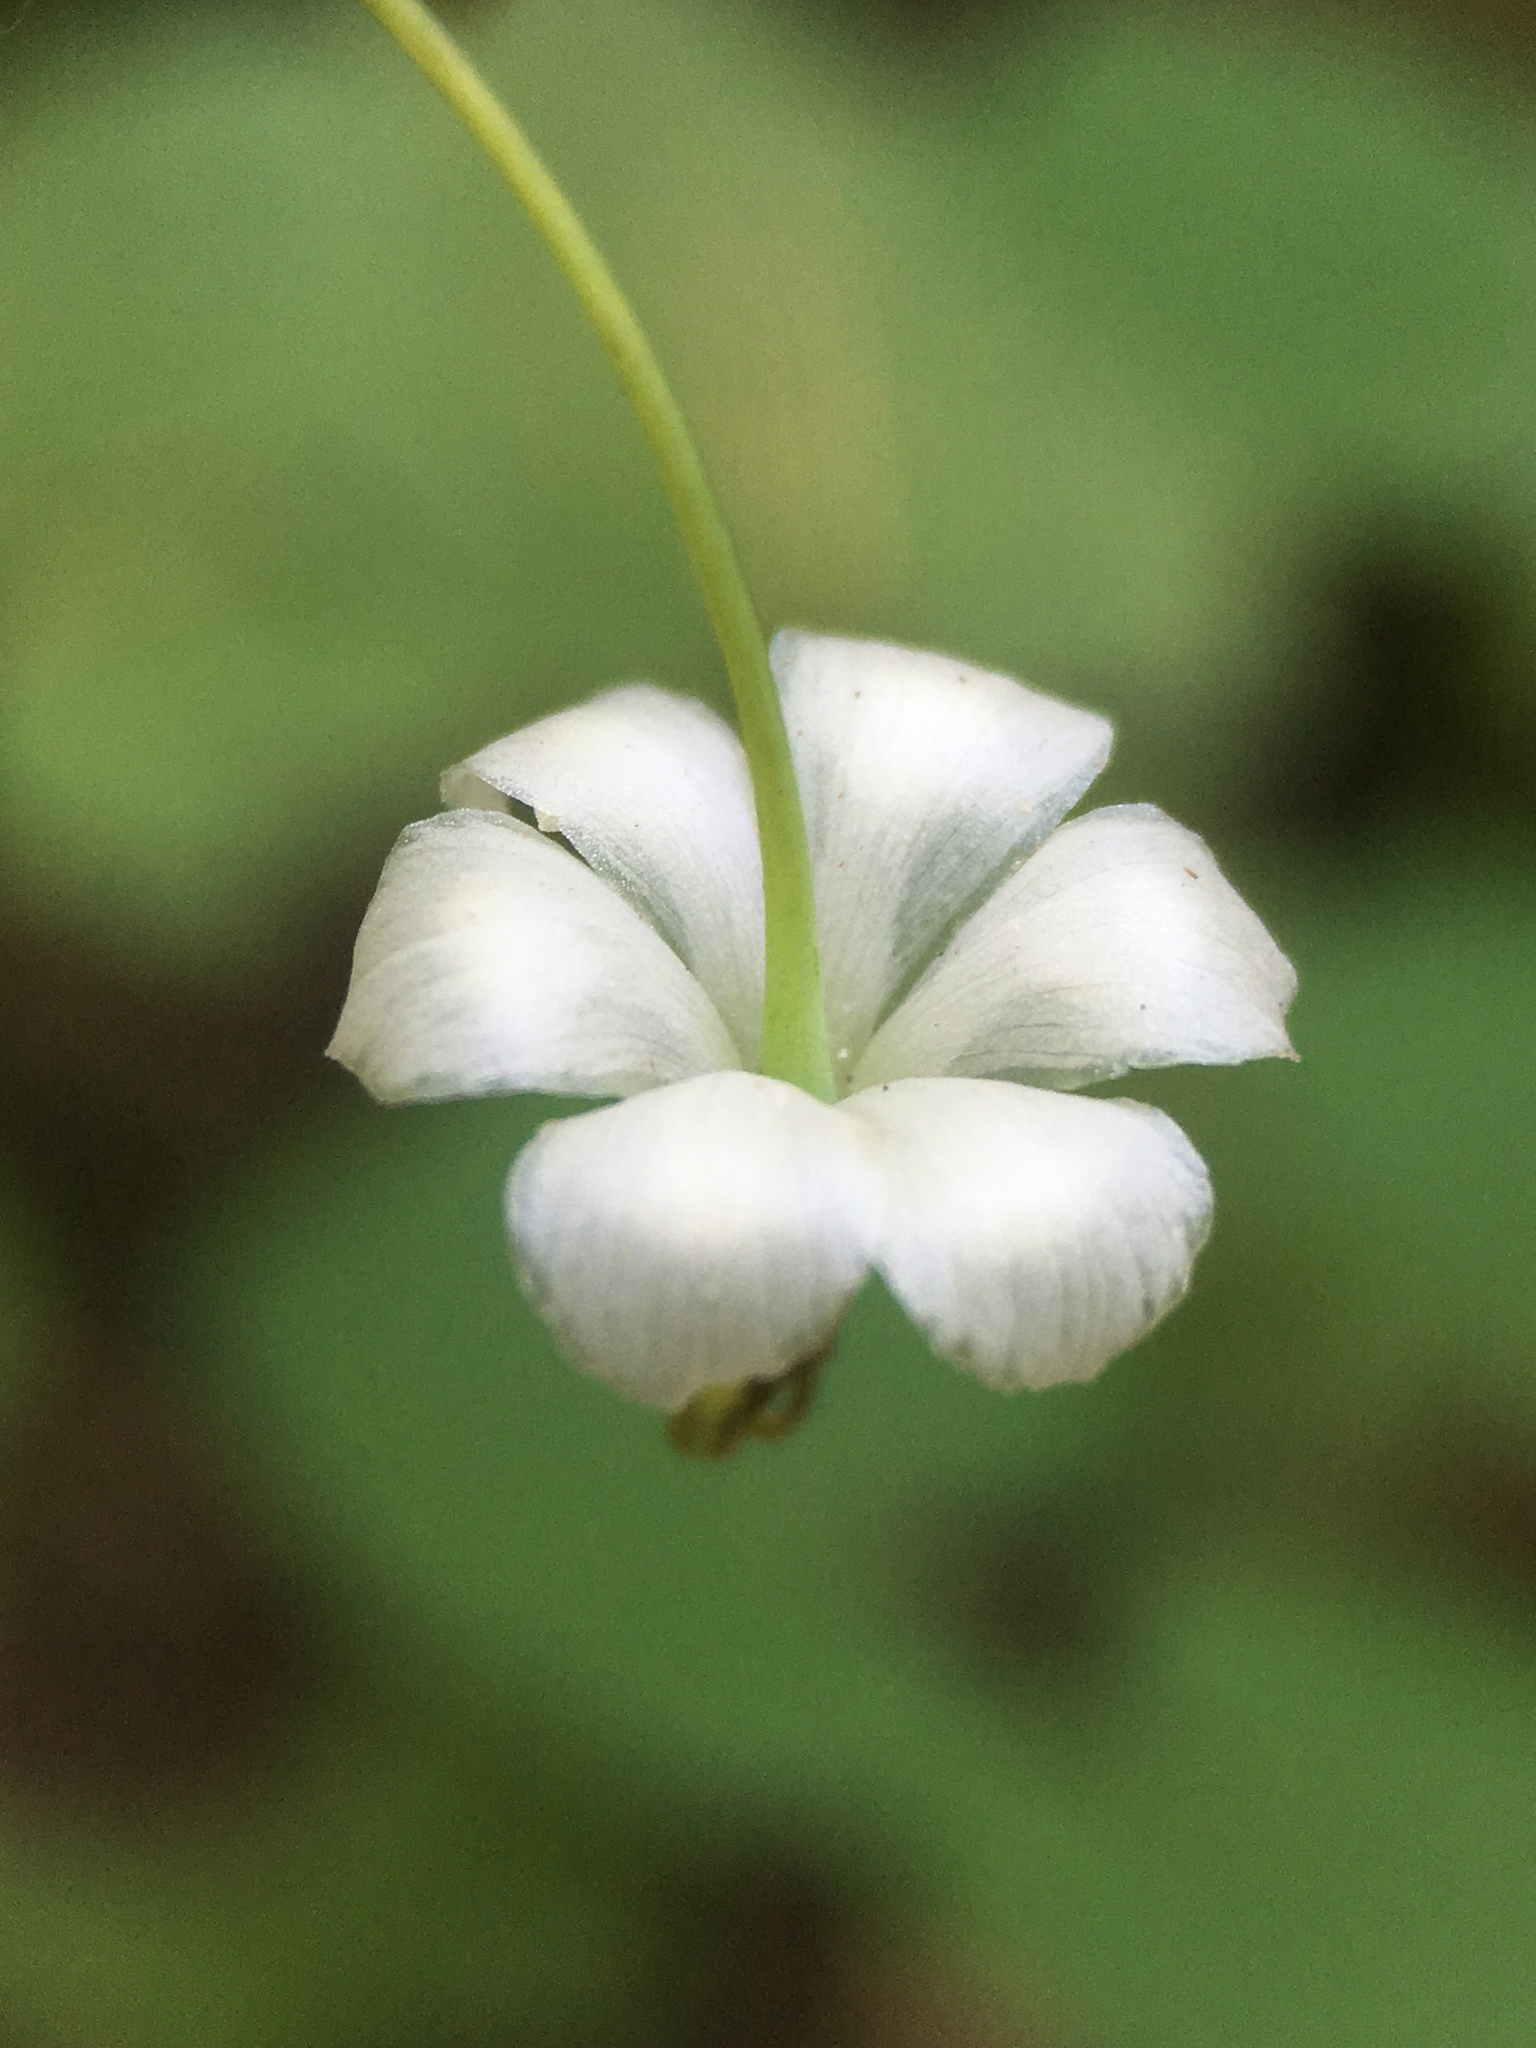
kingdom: Plantae
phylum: Tracheophyta
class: Magnoliopsida
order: Ranunculales
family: Berberidaceae
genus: Vancouveria
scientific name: Vancouveria hexandra
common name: Northern inside-out-flower
